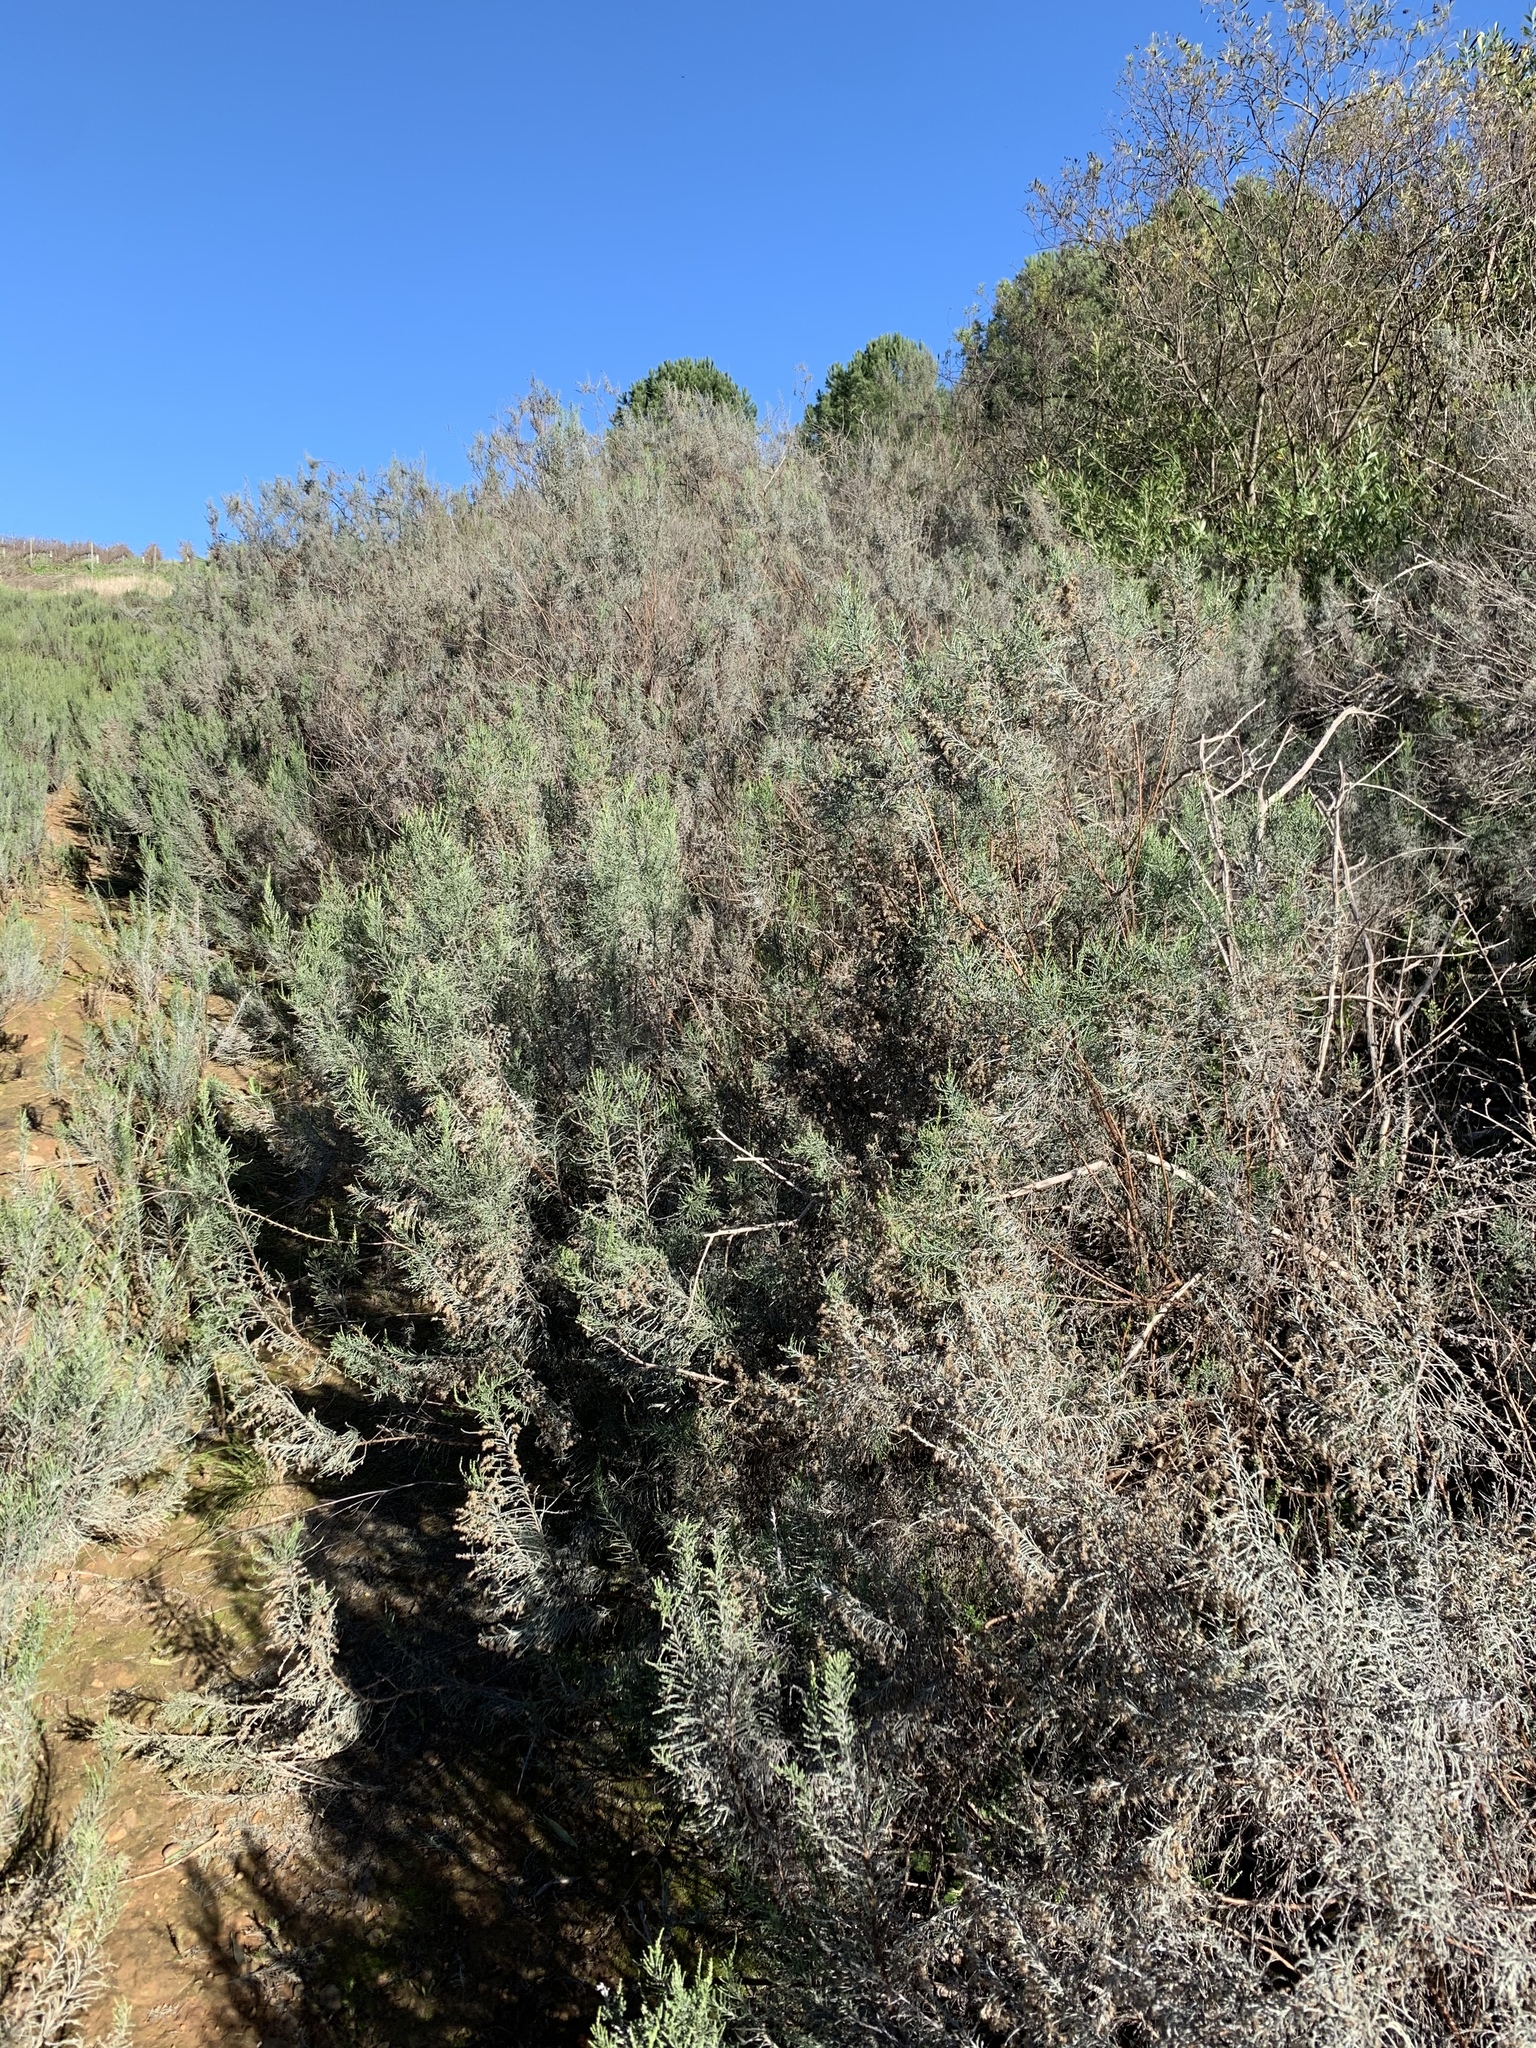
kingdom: Plantae
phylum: Tracheophyta
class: Magnoliopsida
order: Asterales
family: Asteraceae
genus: Dicerothamnus
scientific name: Dicerothamnus rhinocerotis
